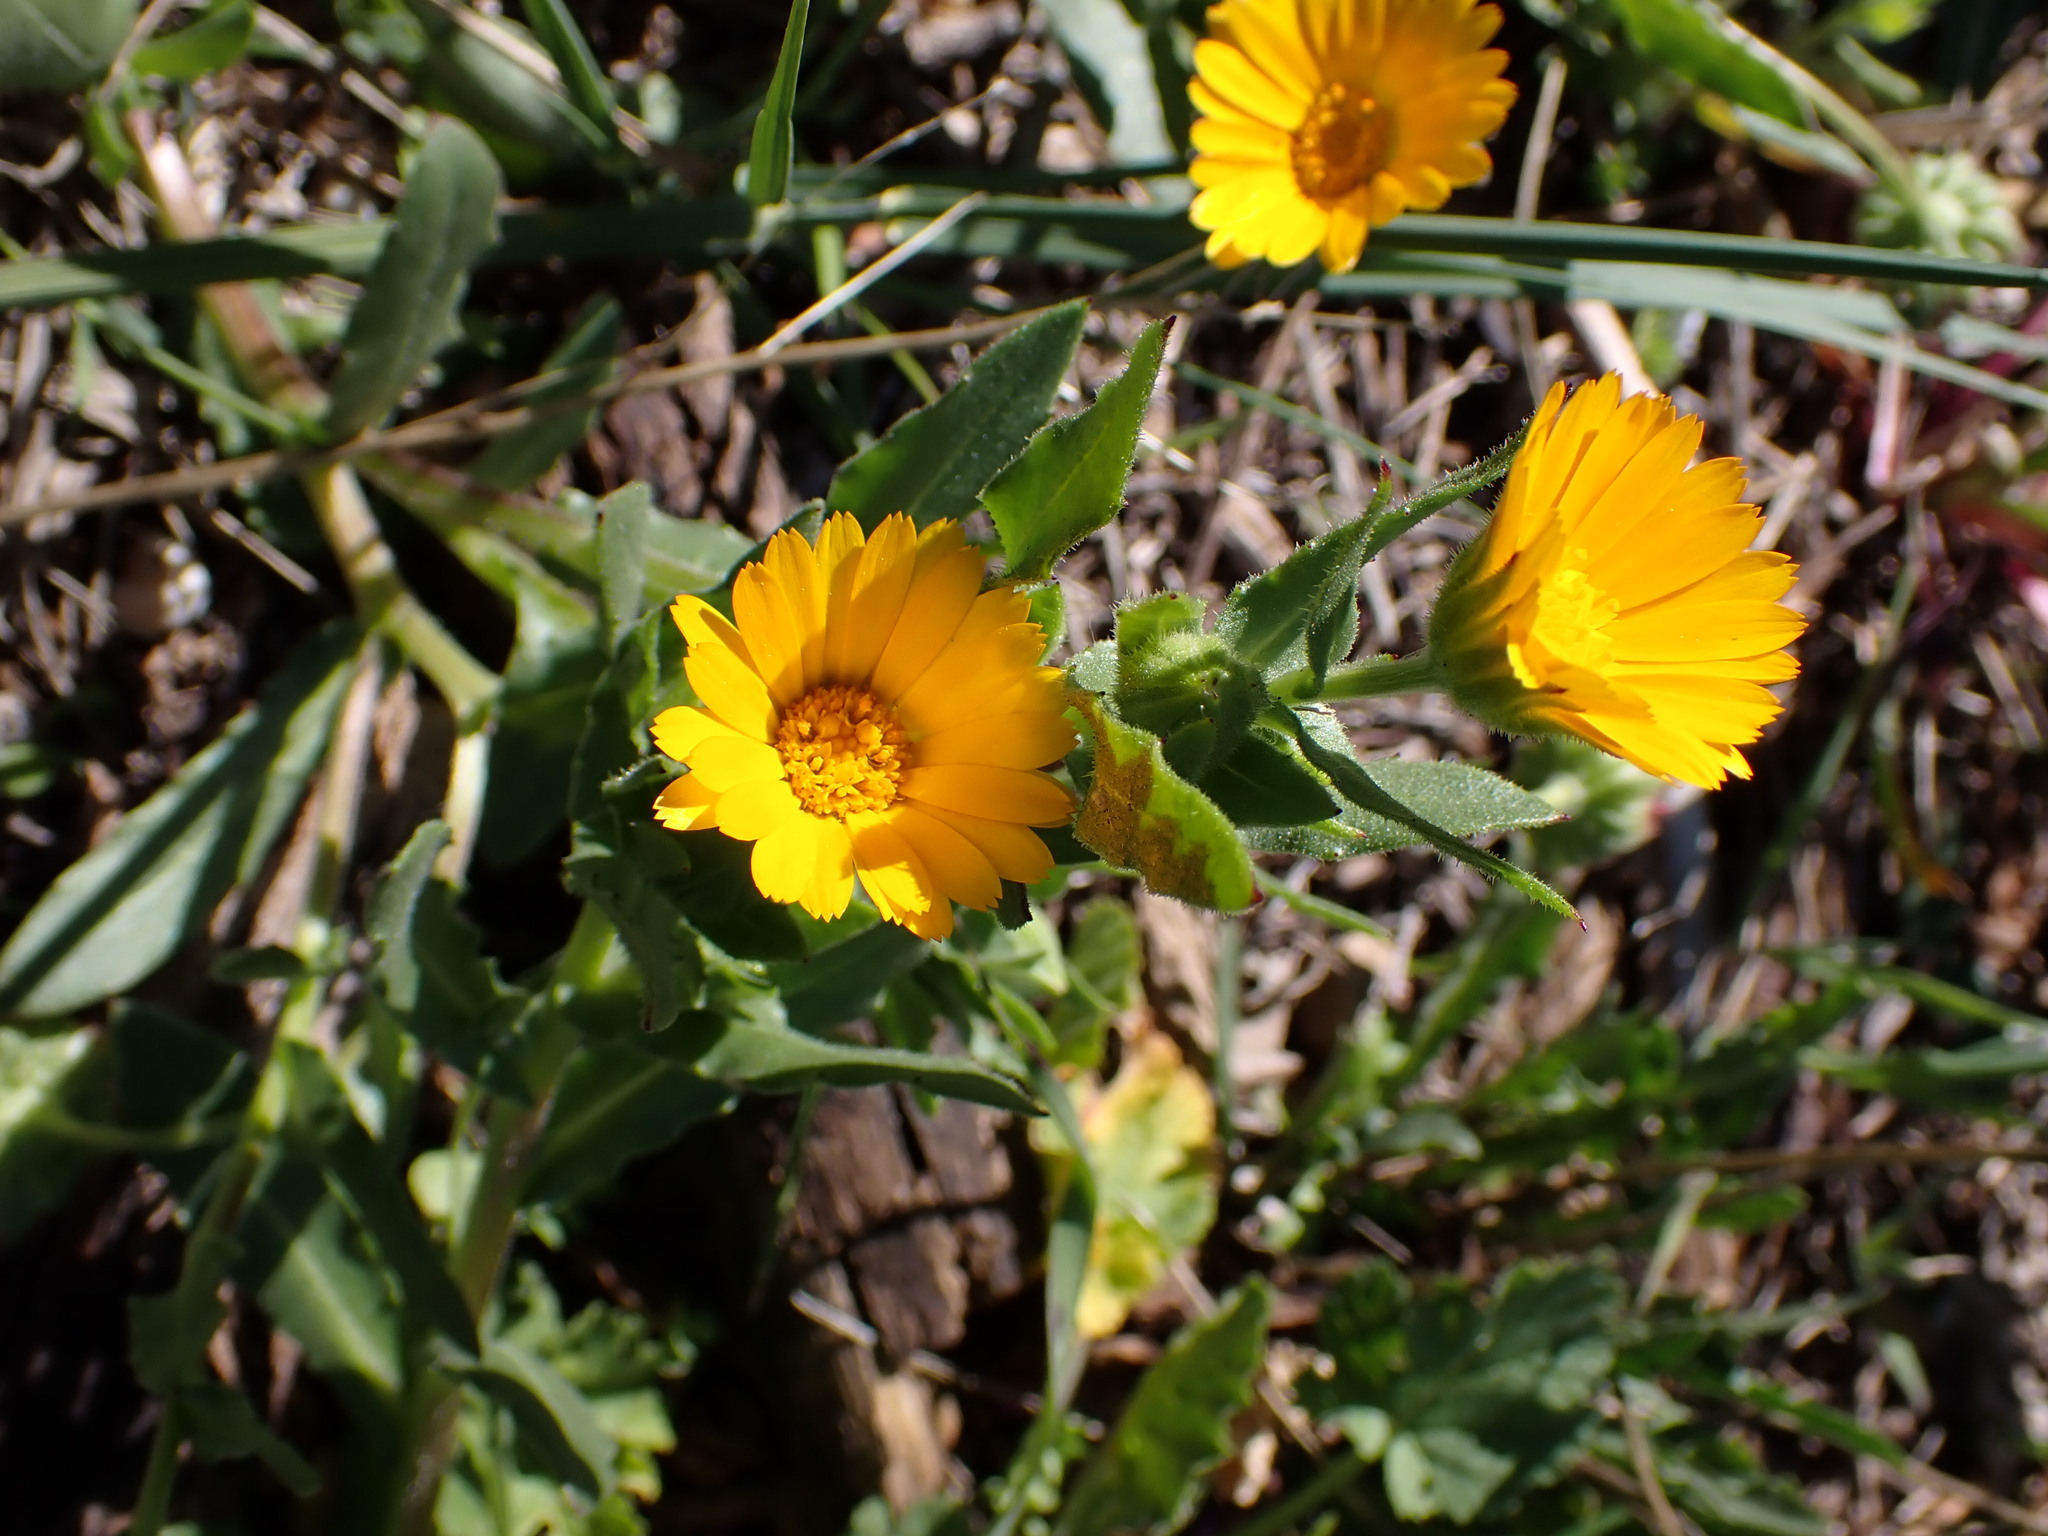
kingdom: Plantae
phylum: Tracheophyta
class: Magnoliopsida
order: Asterales
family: Asteraceae
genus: Calendula
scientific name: Calendula arvensis
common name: Field marigold
